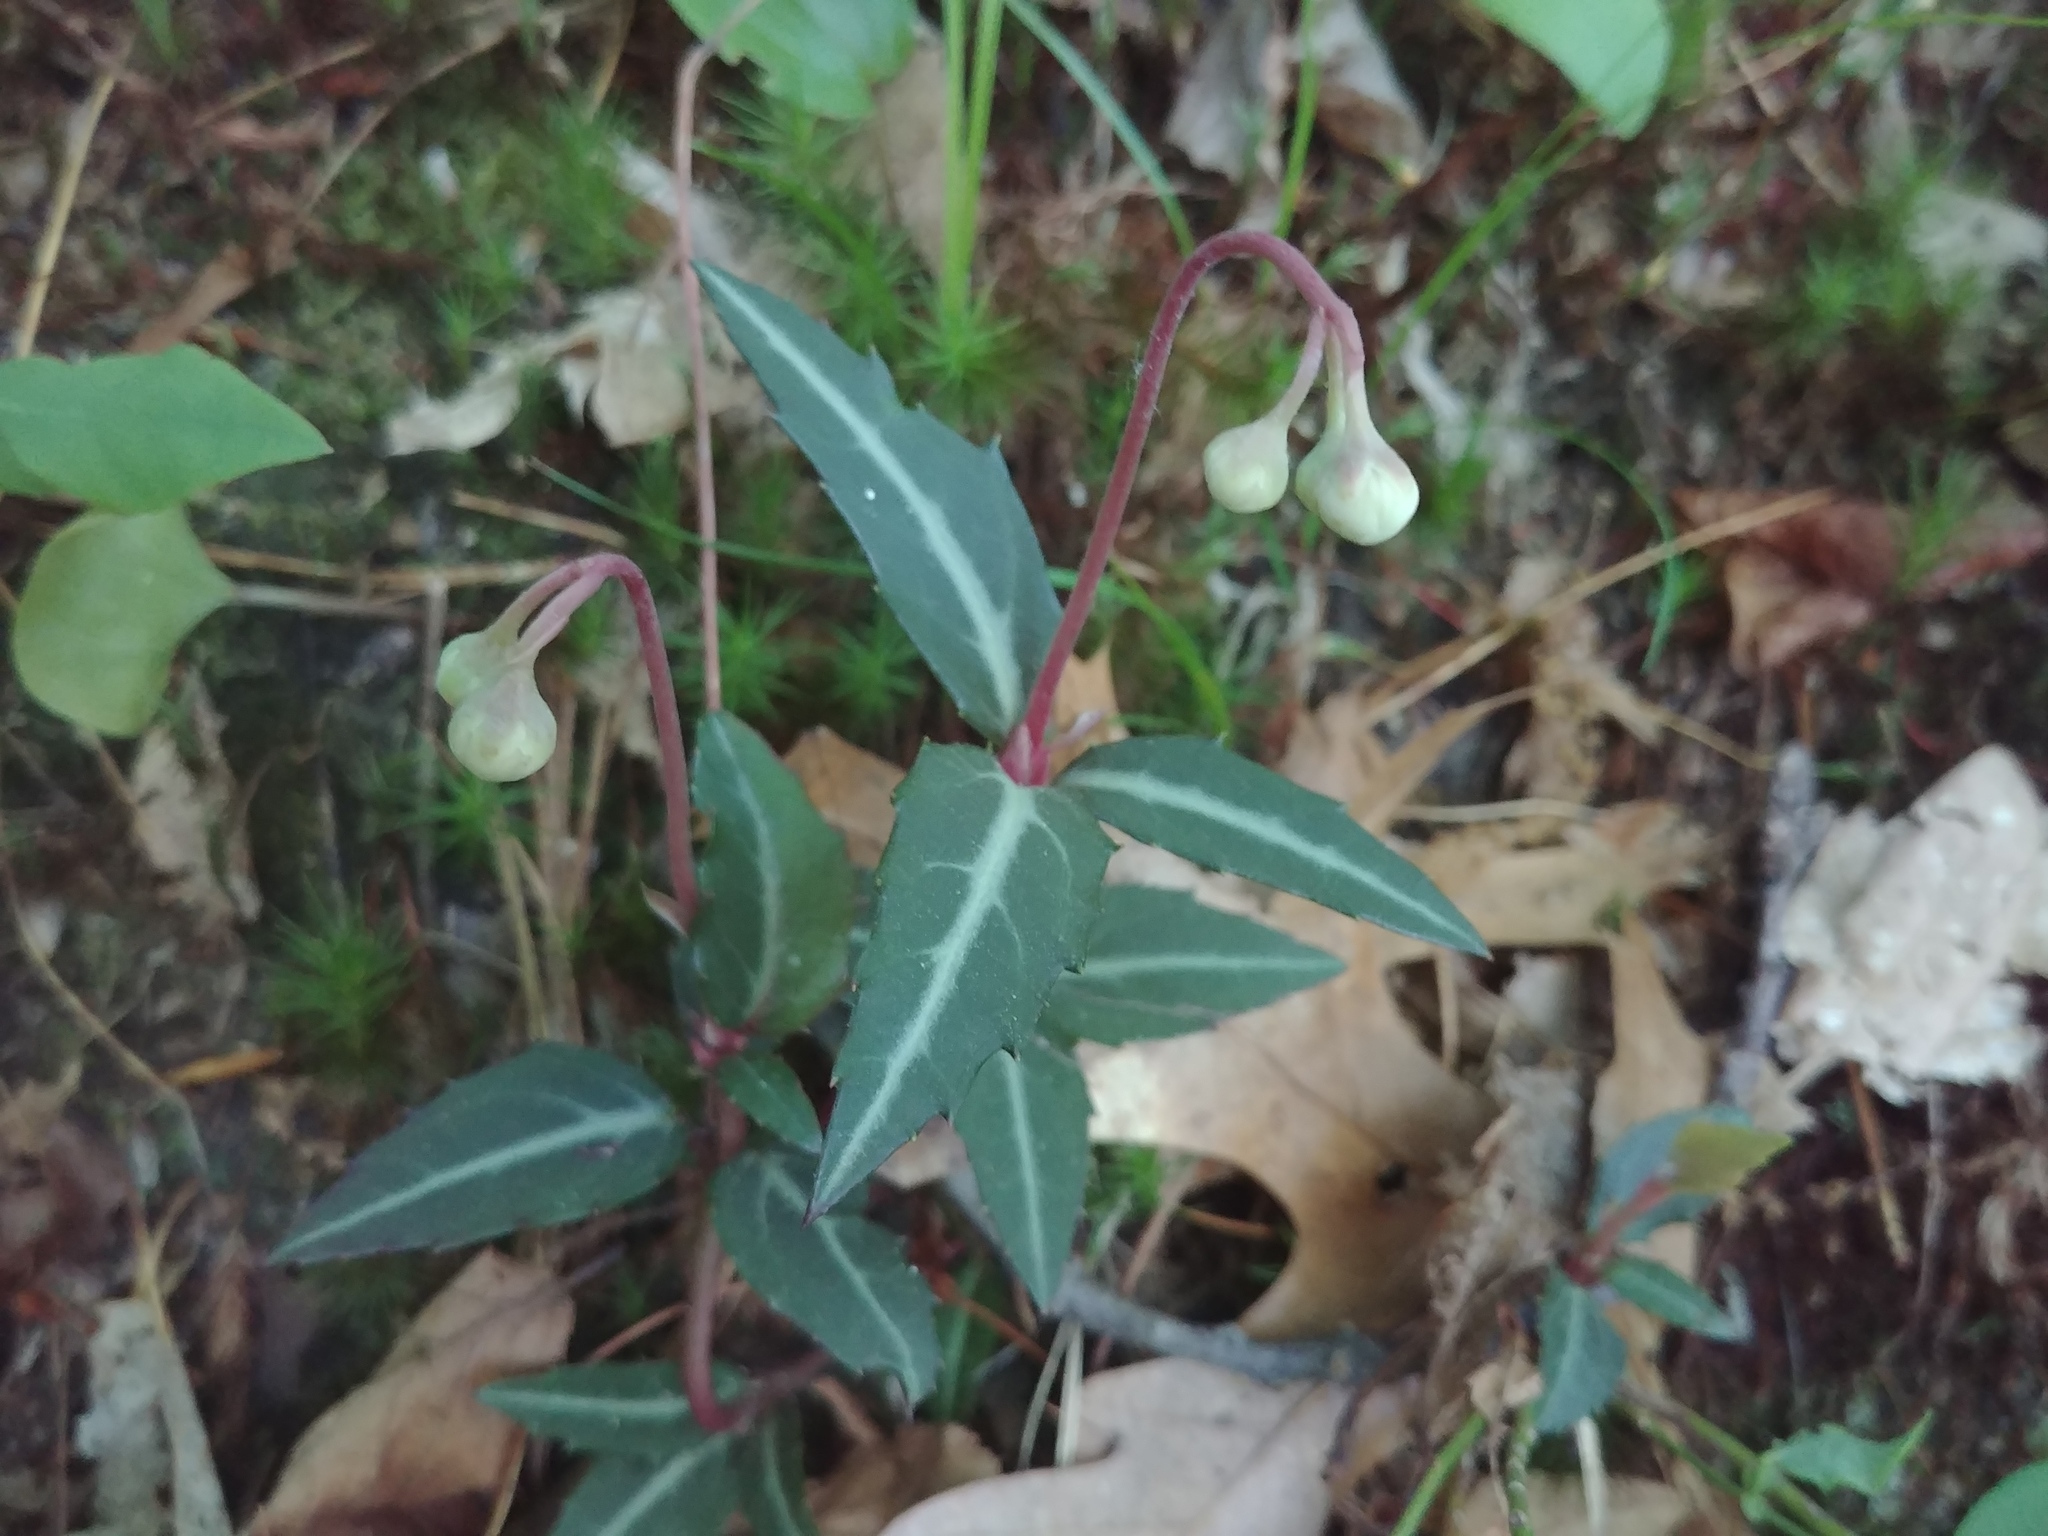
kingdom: Plantae
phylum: Tracheophyta
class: Magnoliopsida
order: Ericales
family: Ericaceae
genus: Chimaphila
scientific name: Chimaphila maculata
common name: Spotted pipsissewa
